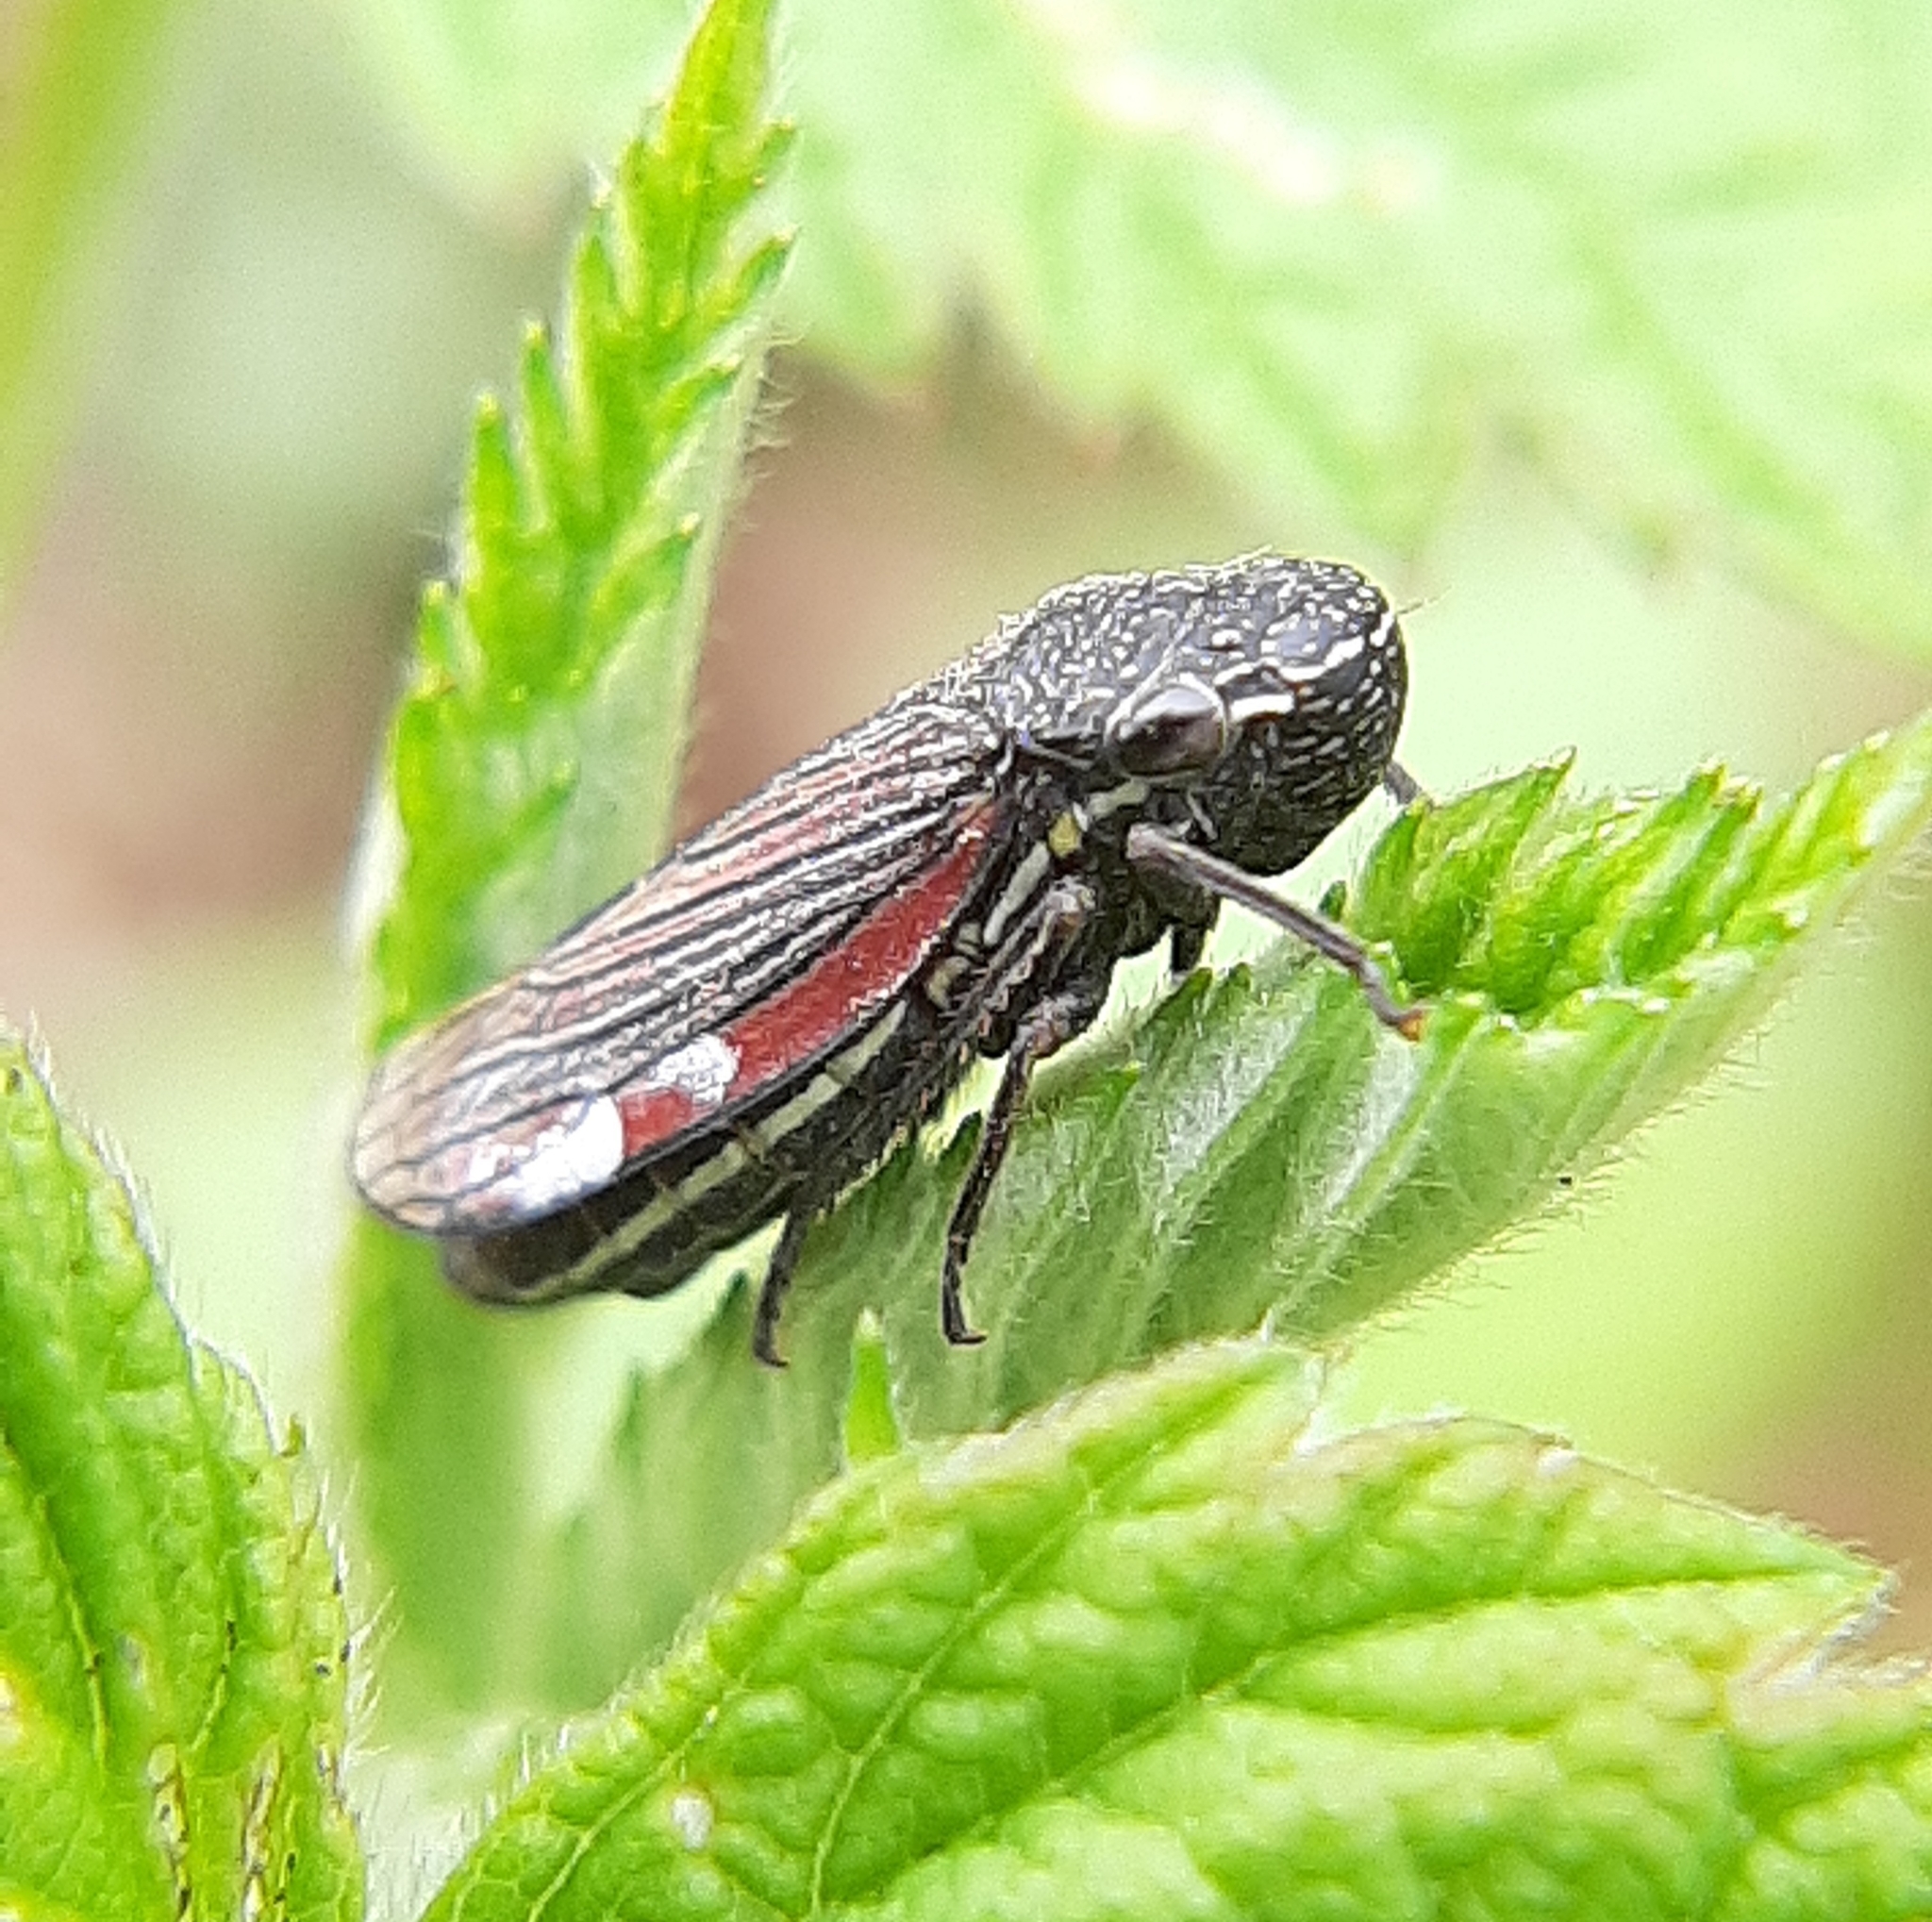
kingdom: Animalia
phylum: Arthropoda
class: Insecta
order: Hemiptera
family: Cicadellidae
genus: Cuerna
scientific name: Cuerna striata
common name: Striped leafhopper
